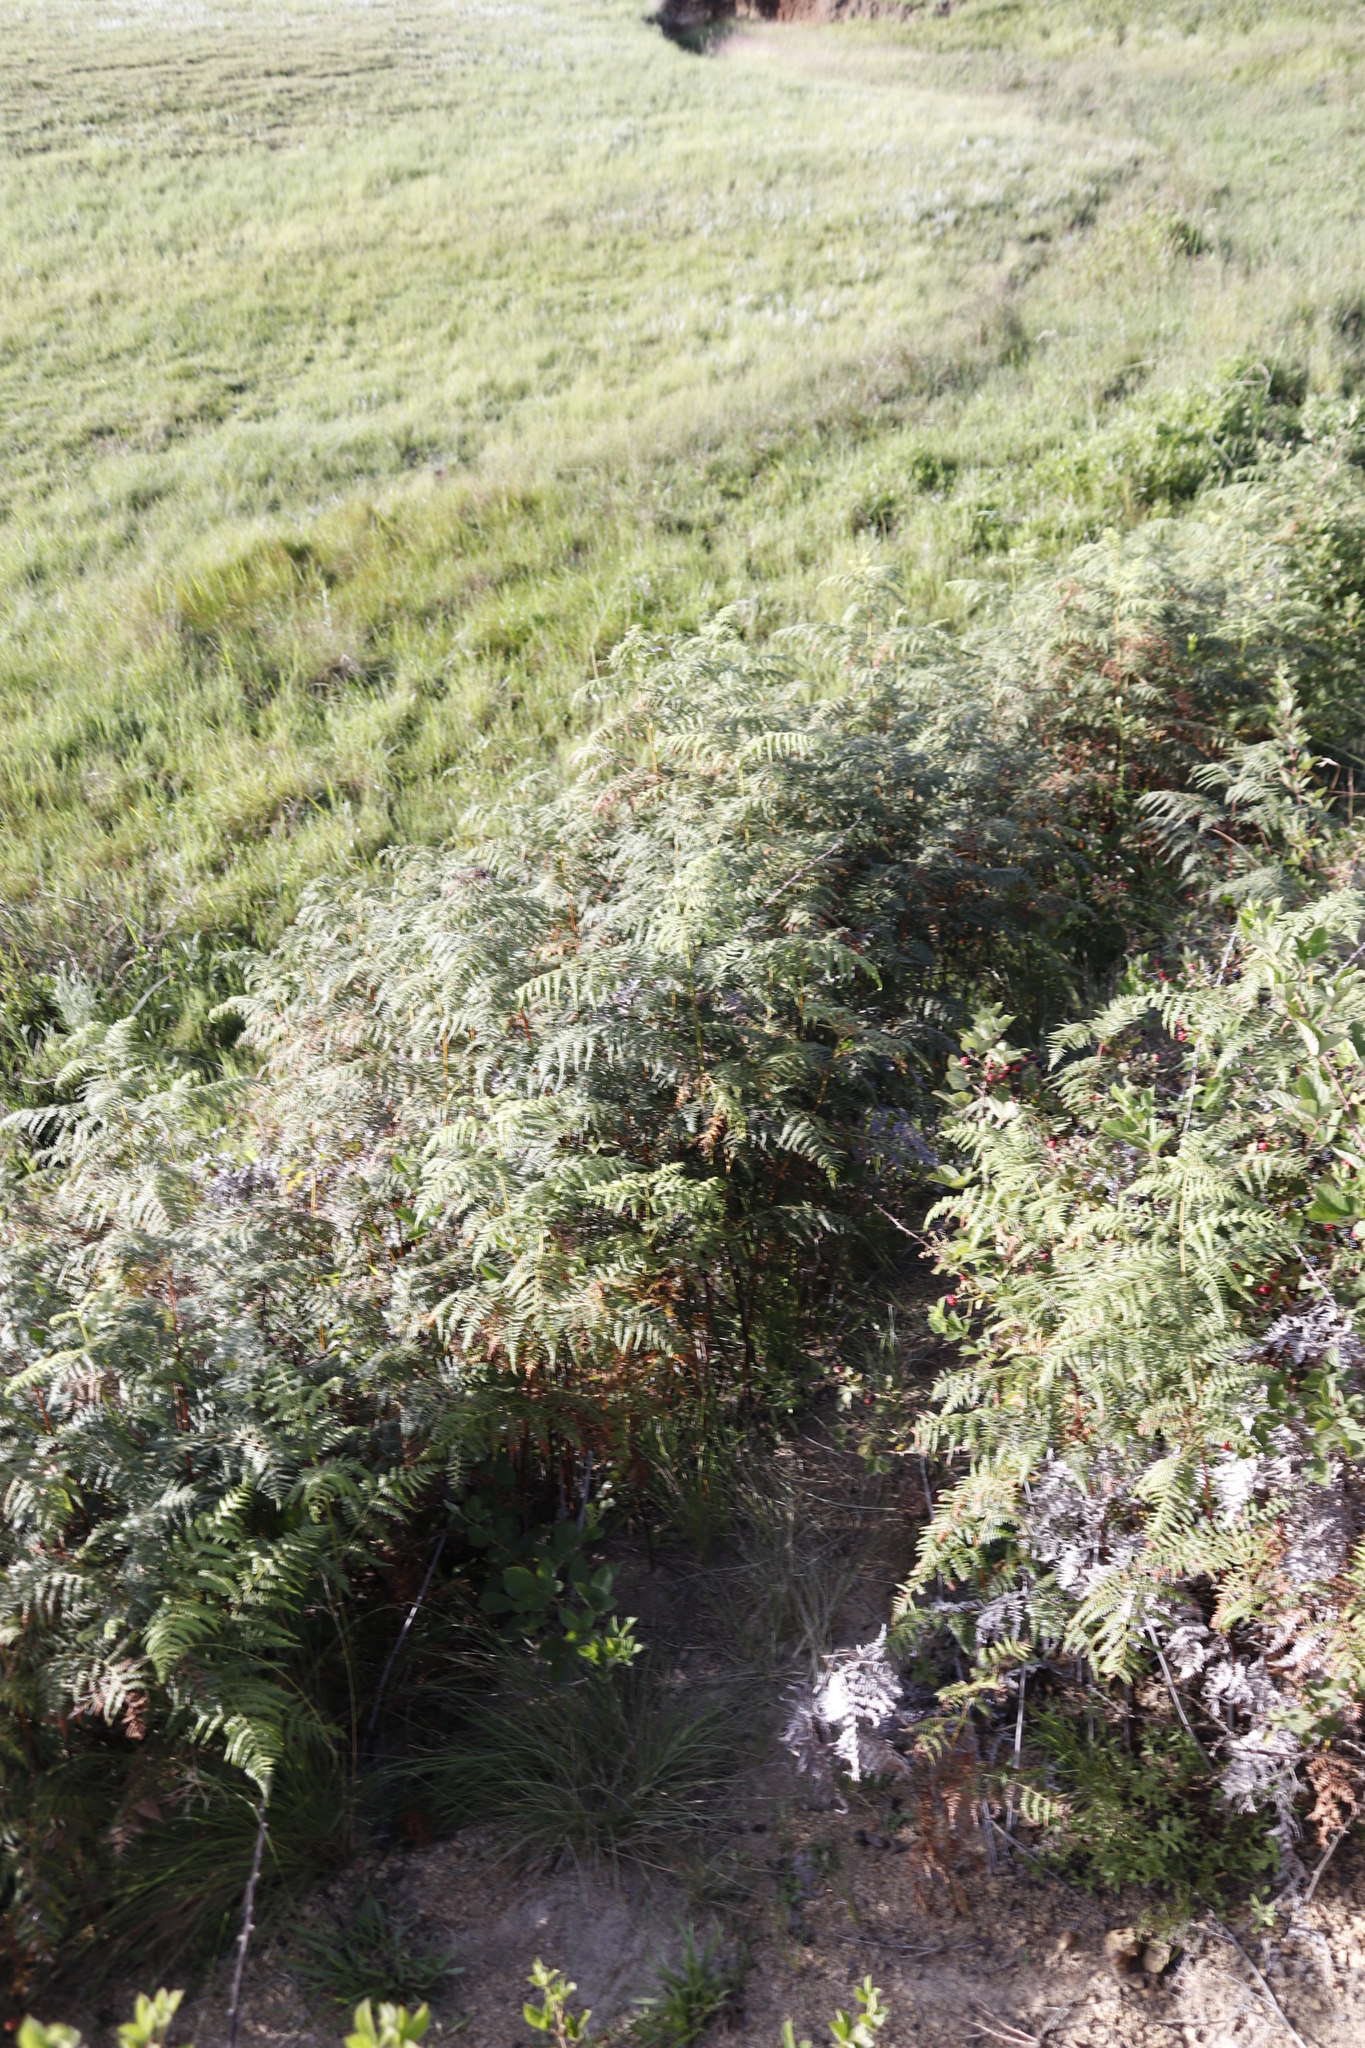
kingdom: Plantae
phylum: Tracheophyta
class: Polypodiopsida
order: Polypodiales
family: Dennstaedtiaceae
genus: Pteridium
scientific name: Pteridium aquilinum
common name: Bracken
